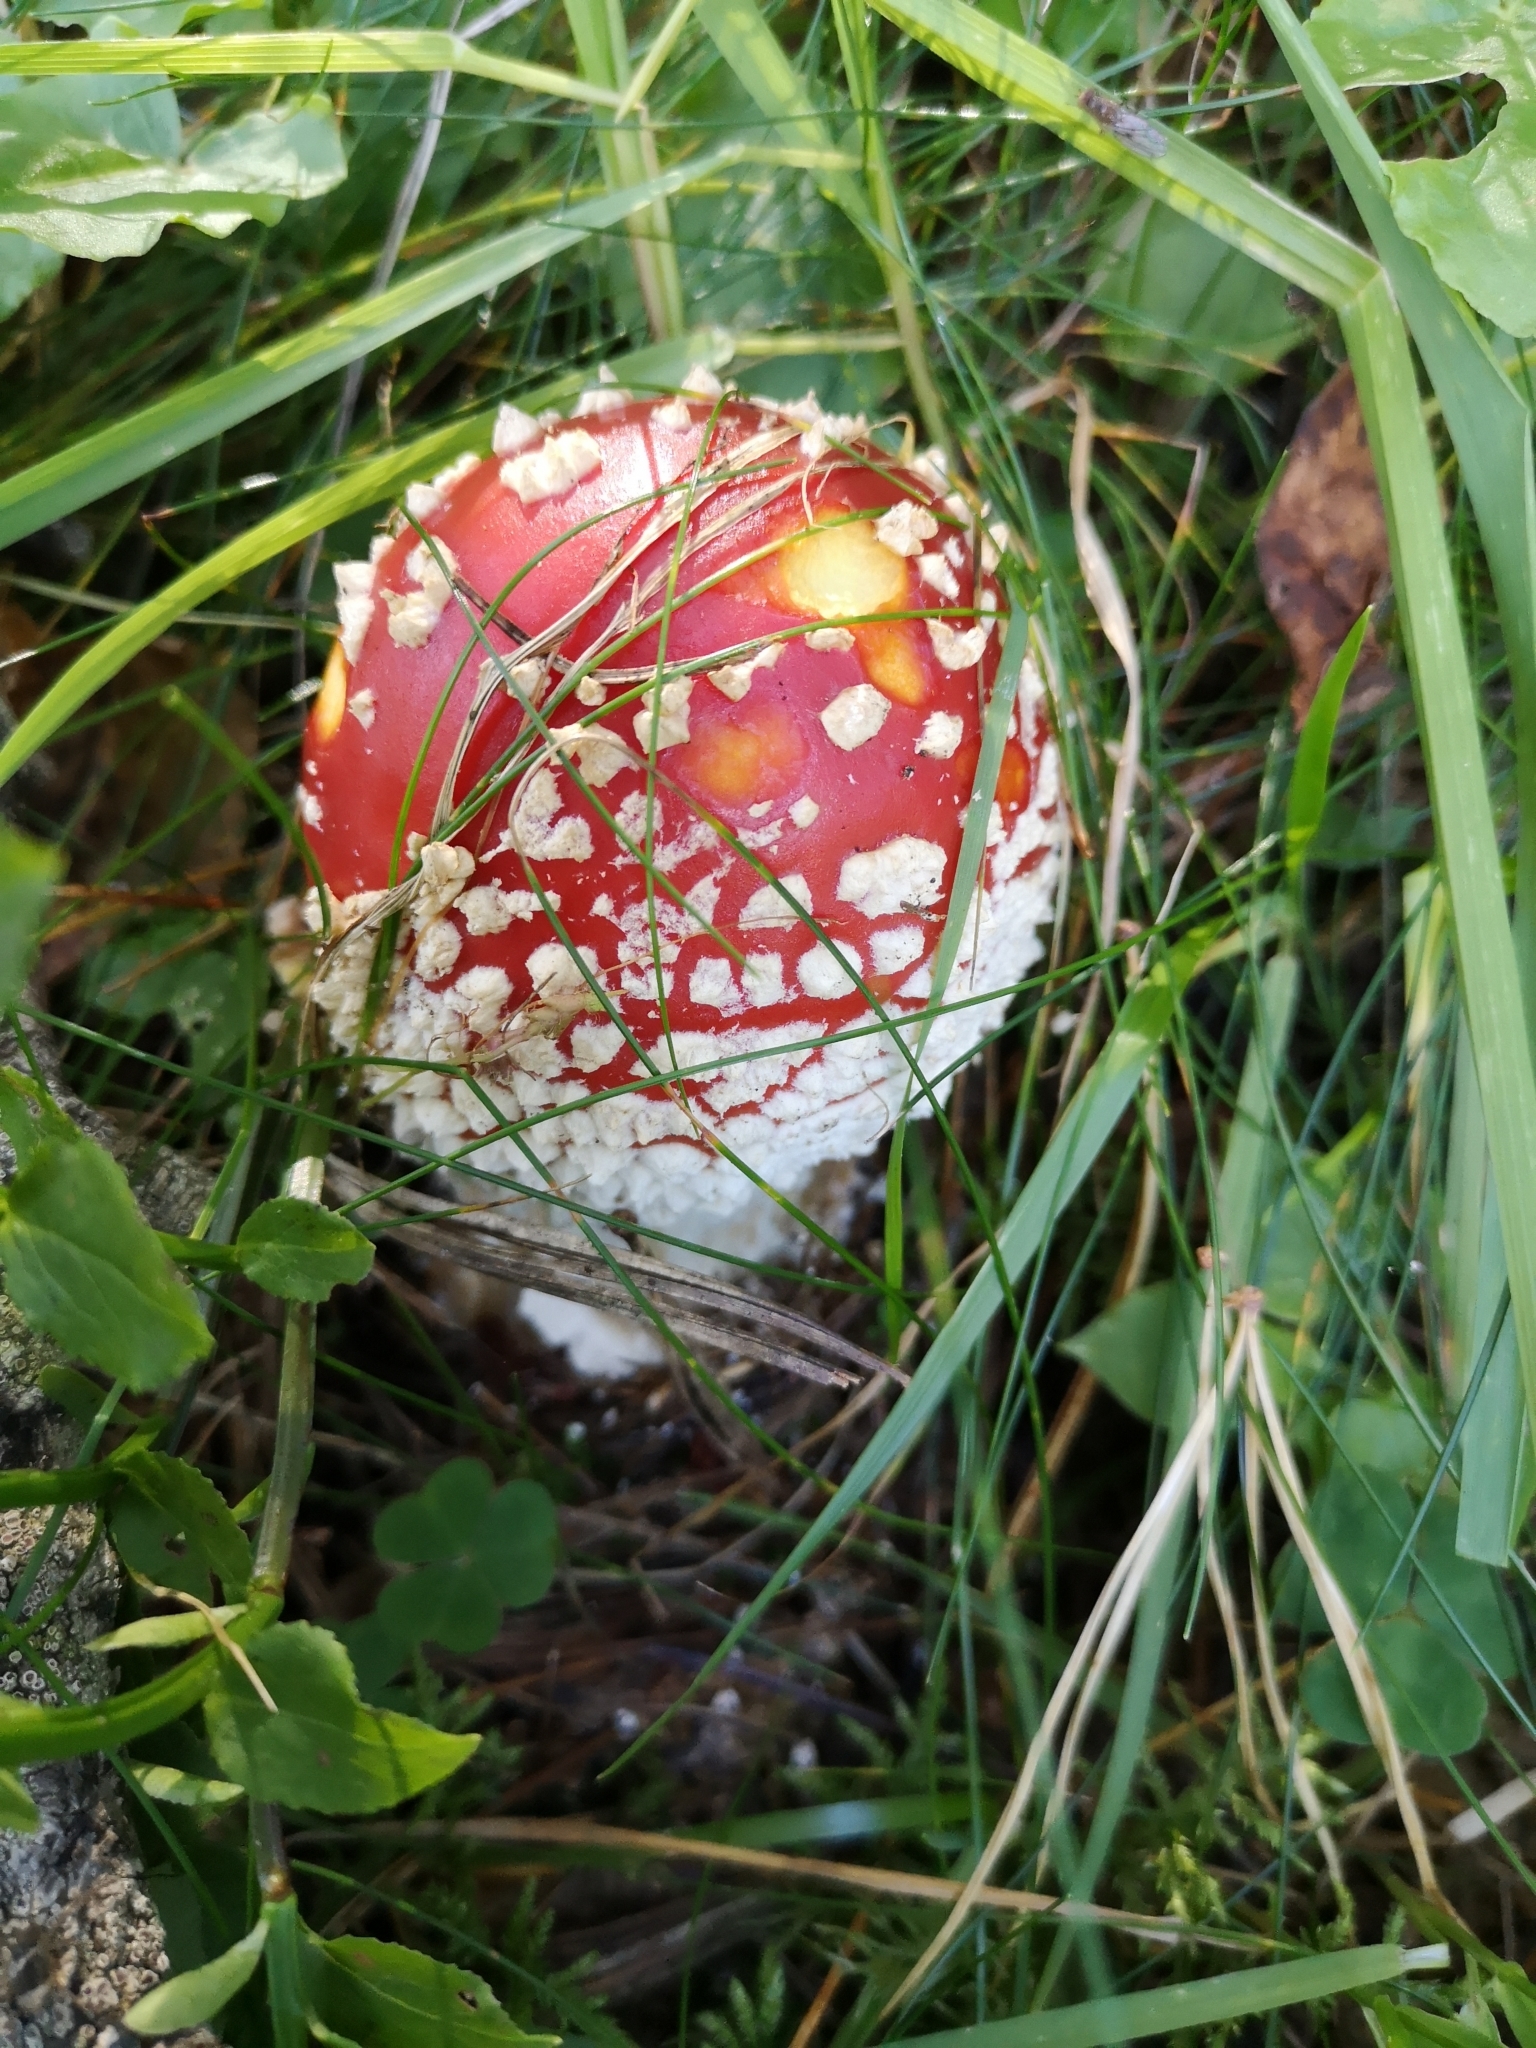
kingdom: Fungi
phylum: Basidiomycota
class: Agaricomycetes
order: Agaricales
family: Amanitaceae
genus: Amanita
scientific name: Amanita muscaria
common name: Fly agaric
